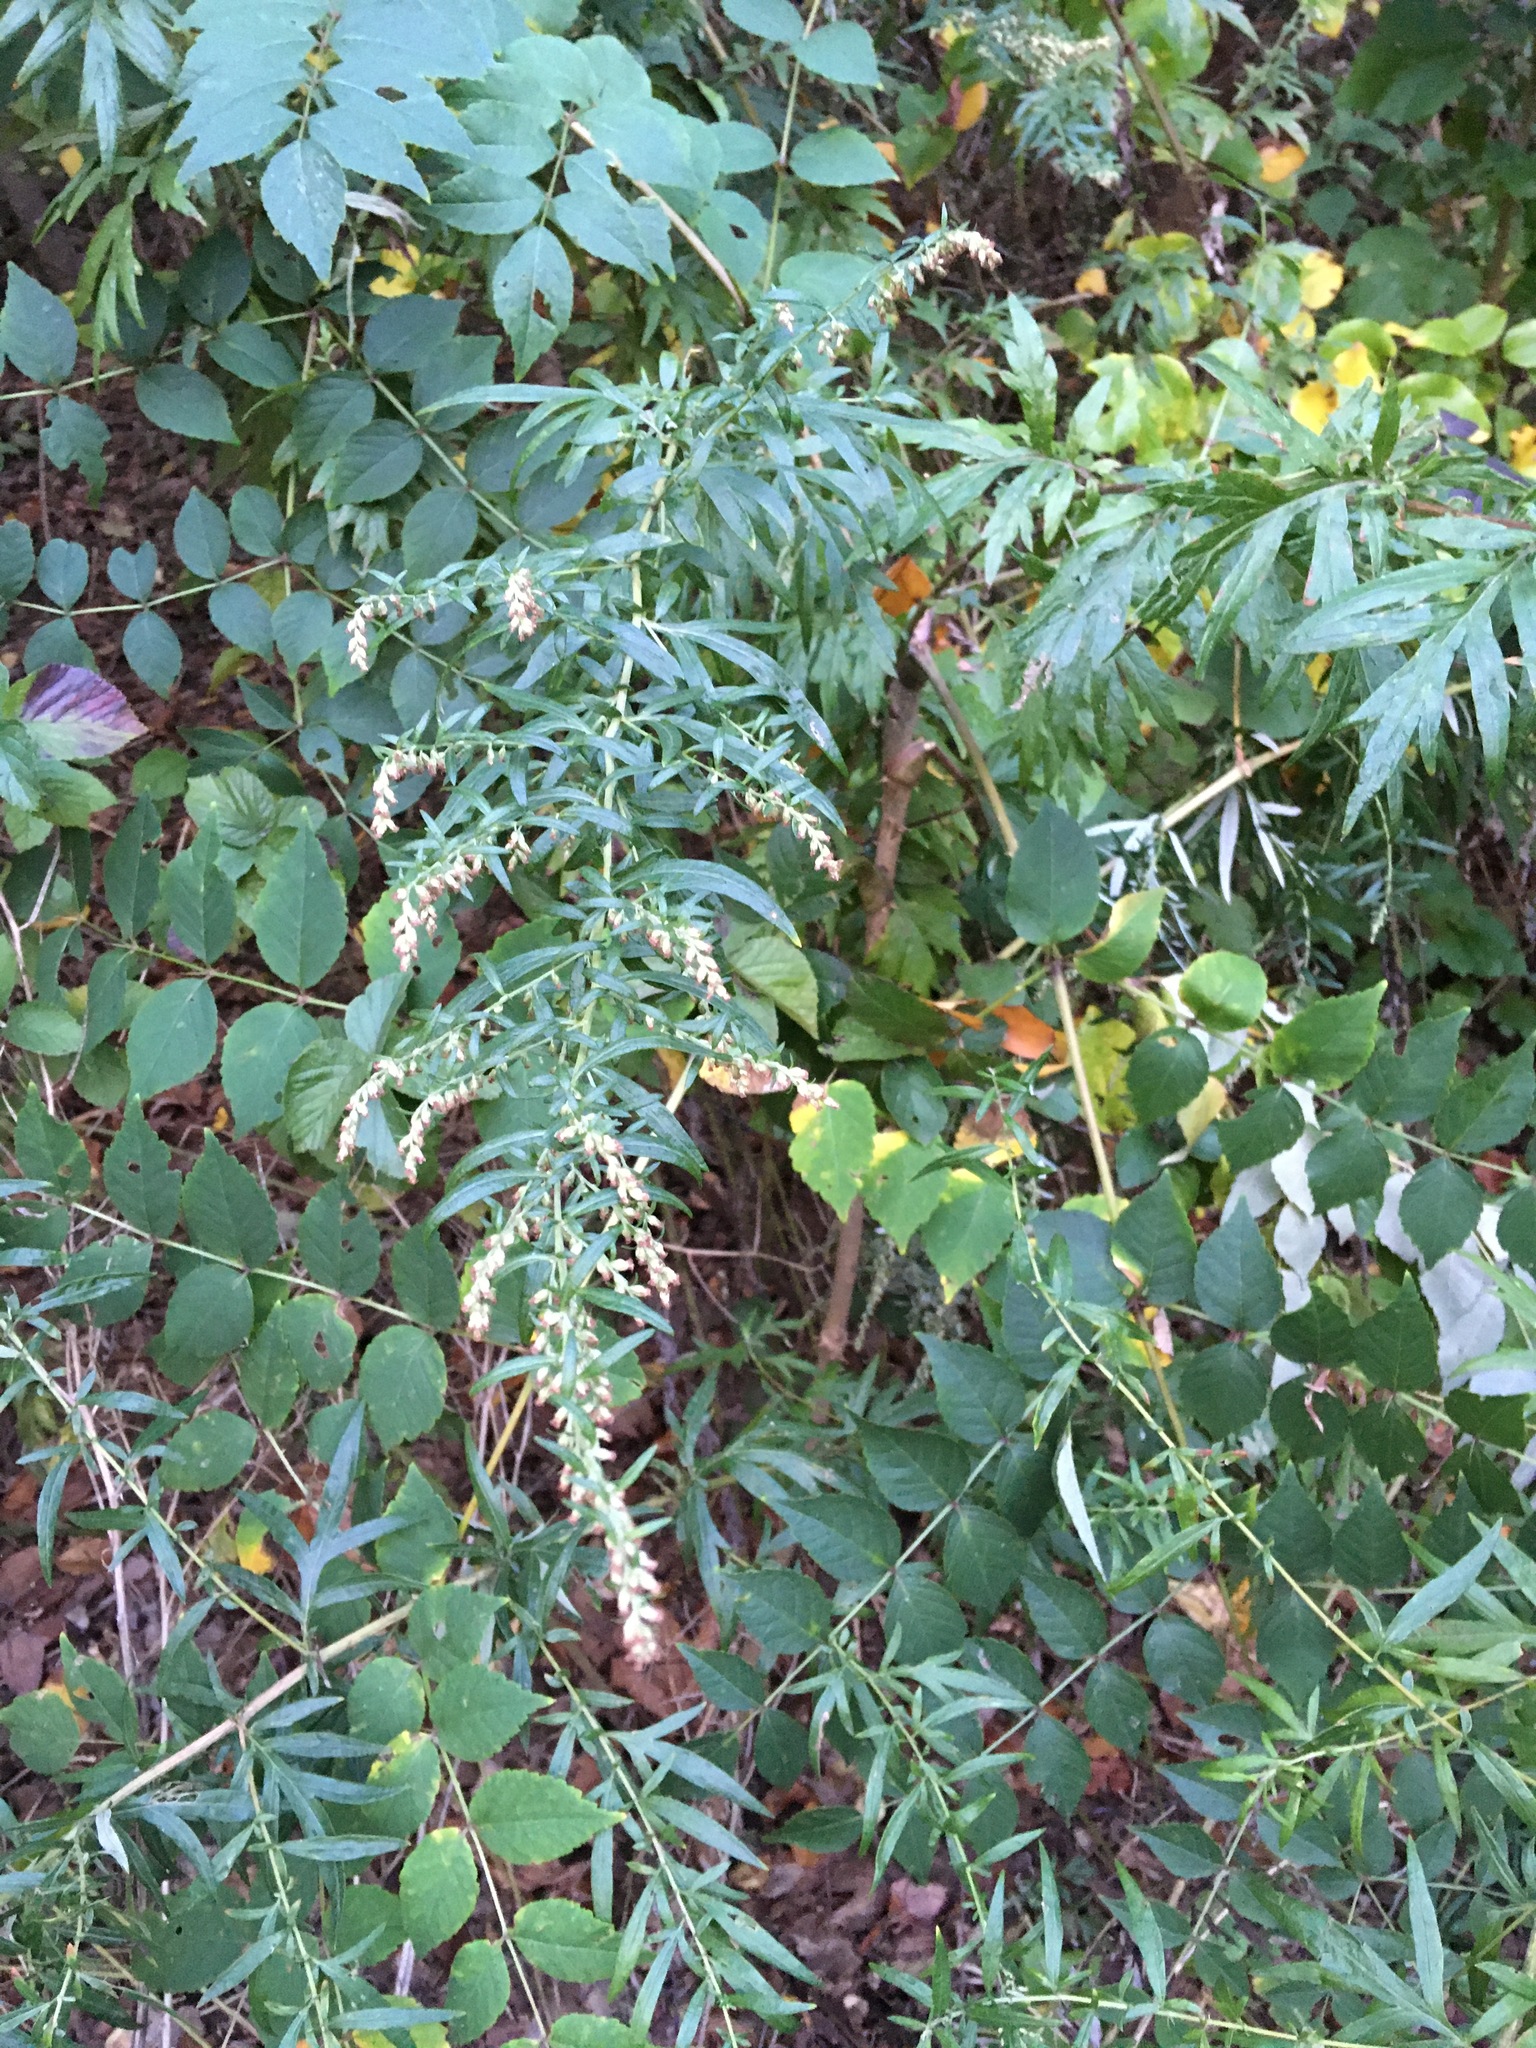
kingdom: Plantae
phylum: Tracheophyta
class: Magnoliopsida
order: Asterales
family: Asteraceae
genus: Artemisia
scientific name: Artemisia vulgaris
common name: Mugwort
